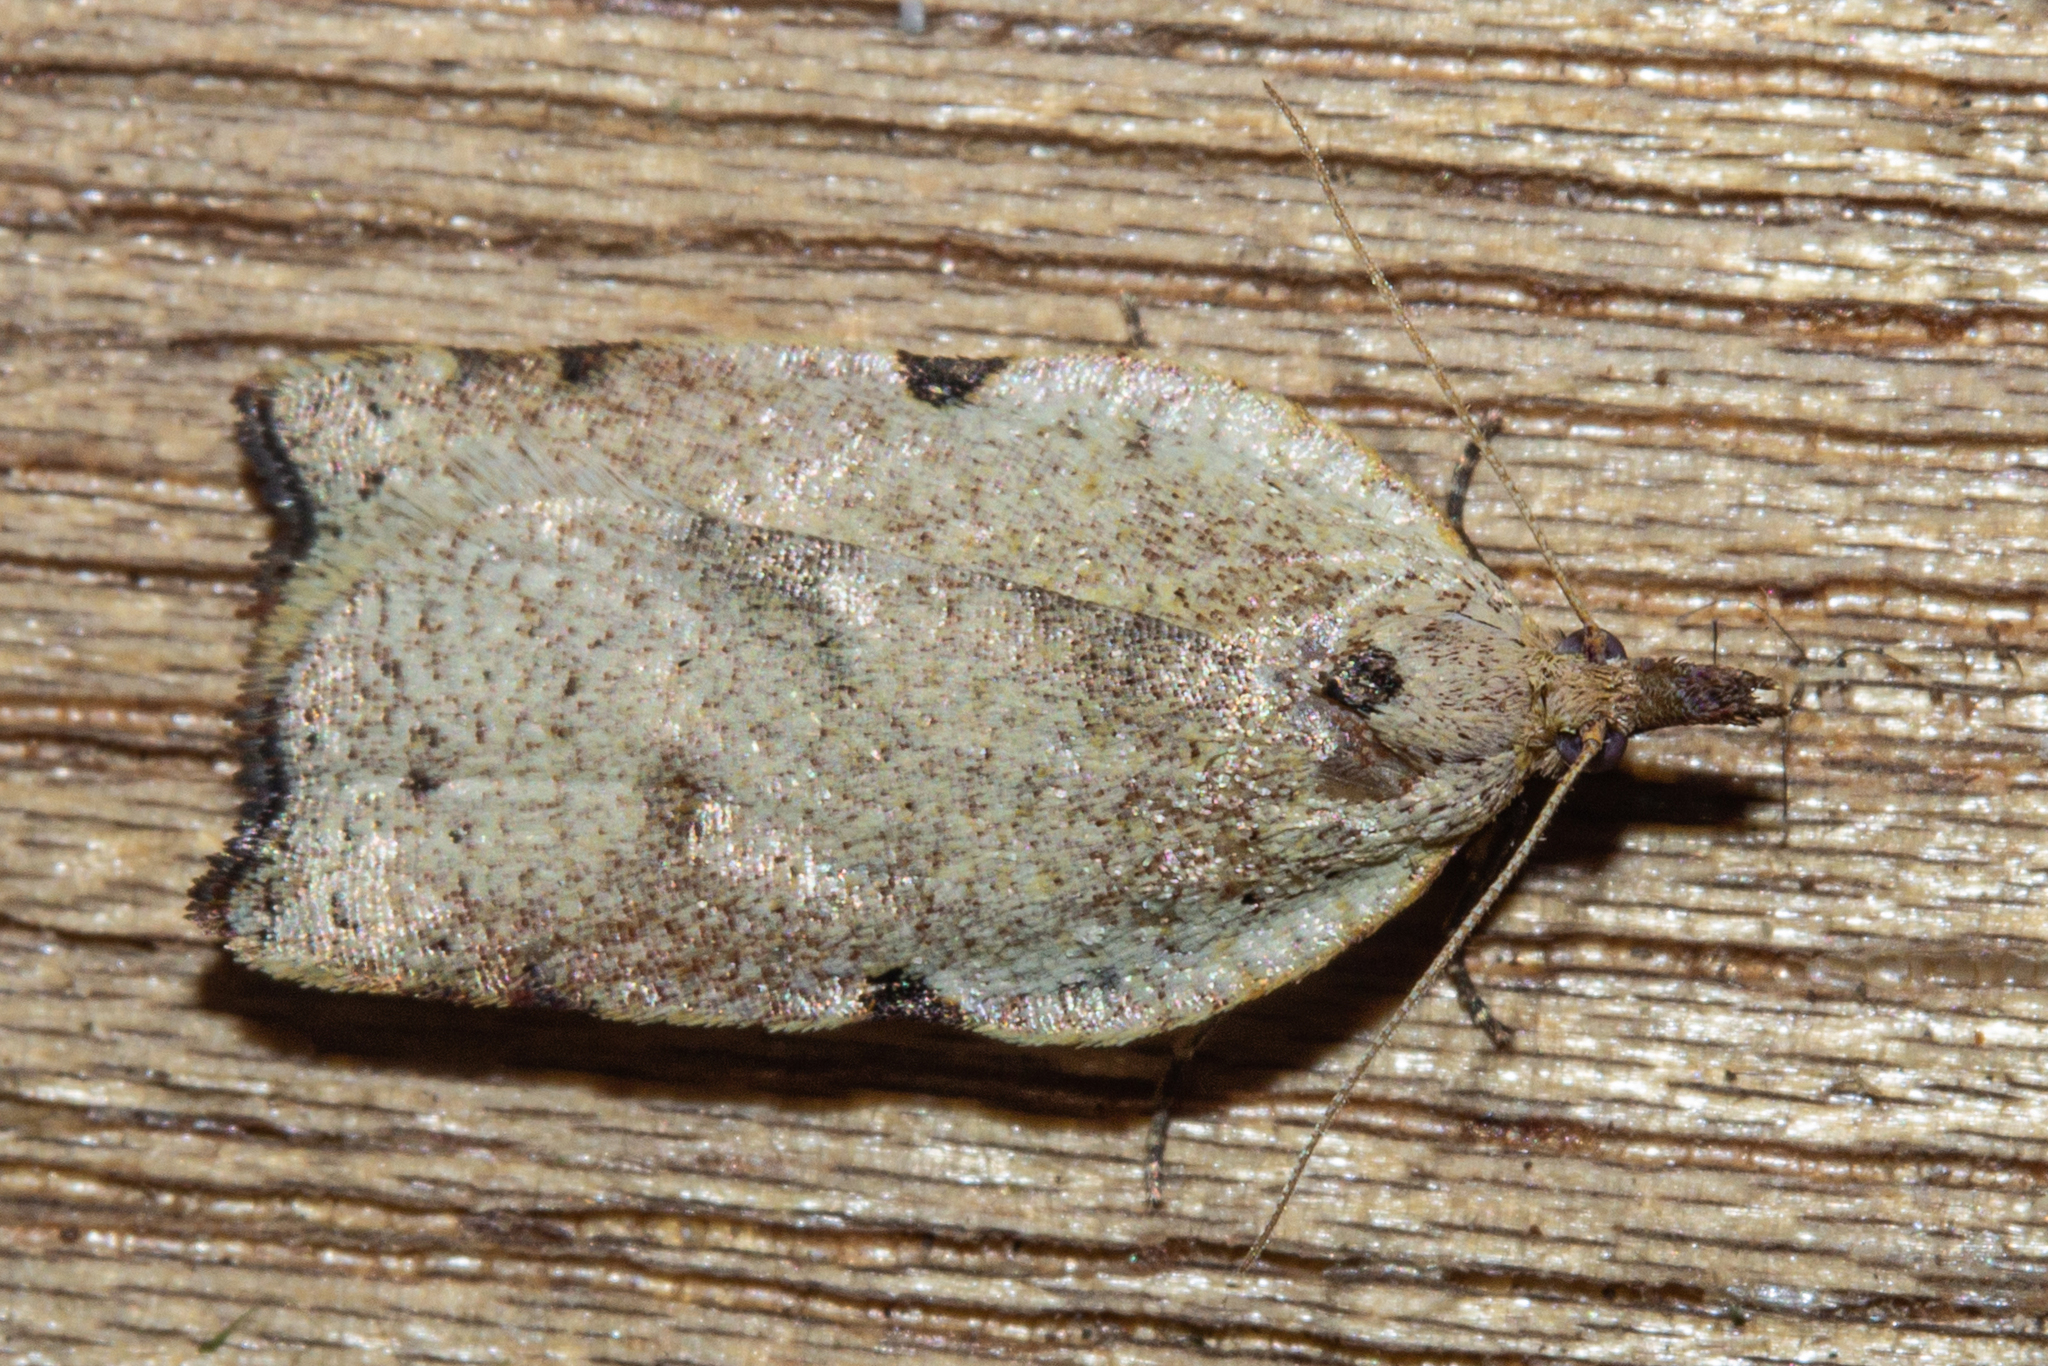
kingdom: Animalia
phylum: Arthropoda
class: Insecta
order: Lepidoptera
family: Tortricidae
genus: Apoctena
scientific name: Apoctena flavescens
